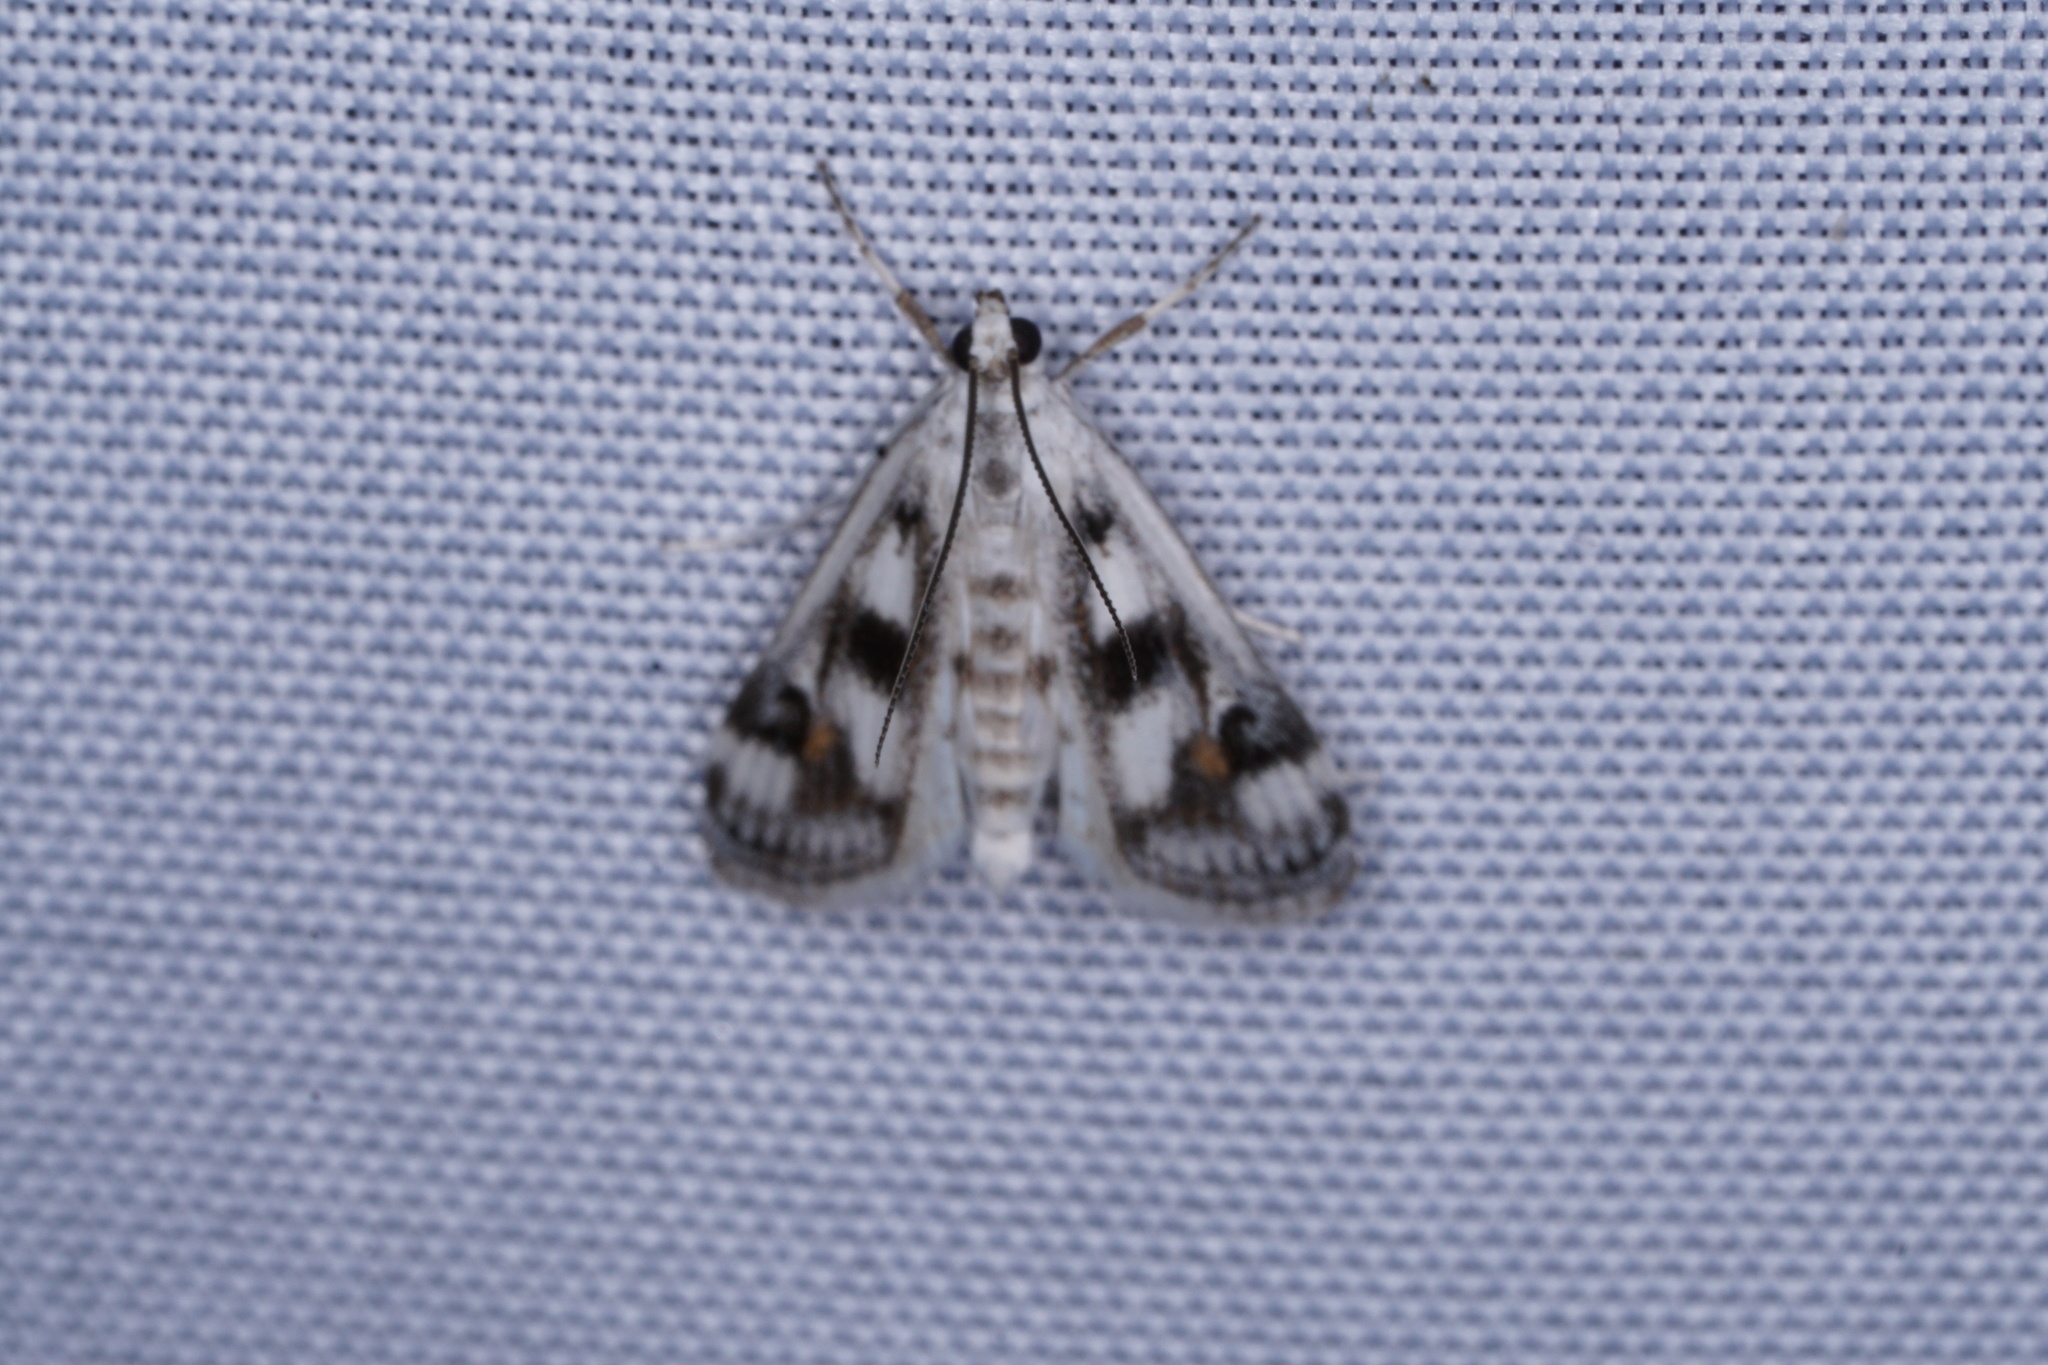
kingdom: Animalia
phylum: Arthropoda
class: Insecta
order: Lepidoptera
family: Crambidae
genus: Parapoynx
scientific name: Parapoynx maculalis
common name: Polymorphic pondweed moth
